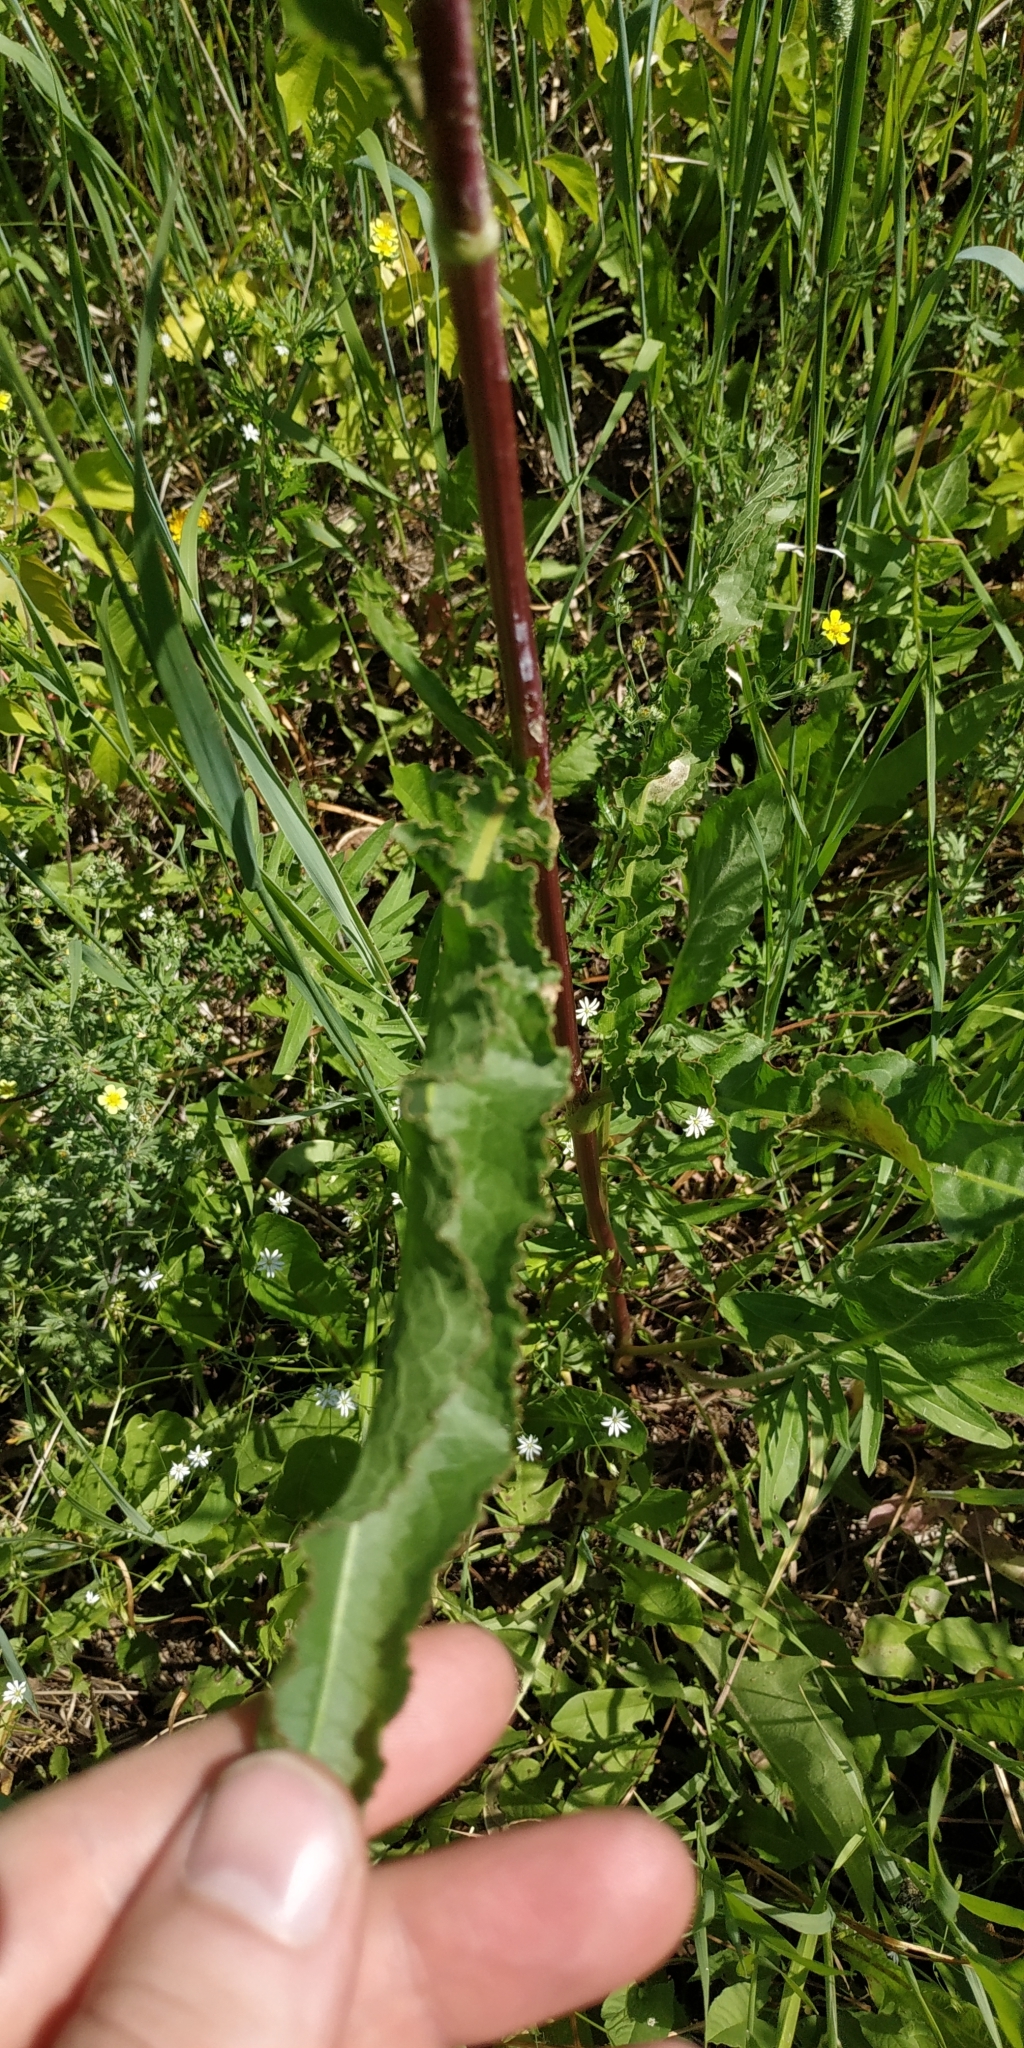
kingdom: Plantae
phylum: Tracheophyta
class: Magnoliopsida
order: Caryophyllales
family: Polygonaceae
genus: Rumex
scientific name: Rumex pseudonatronatus
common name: Field dock
